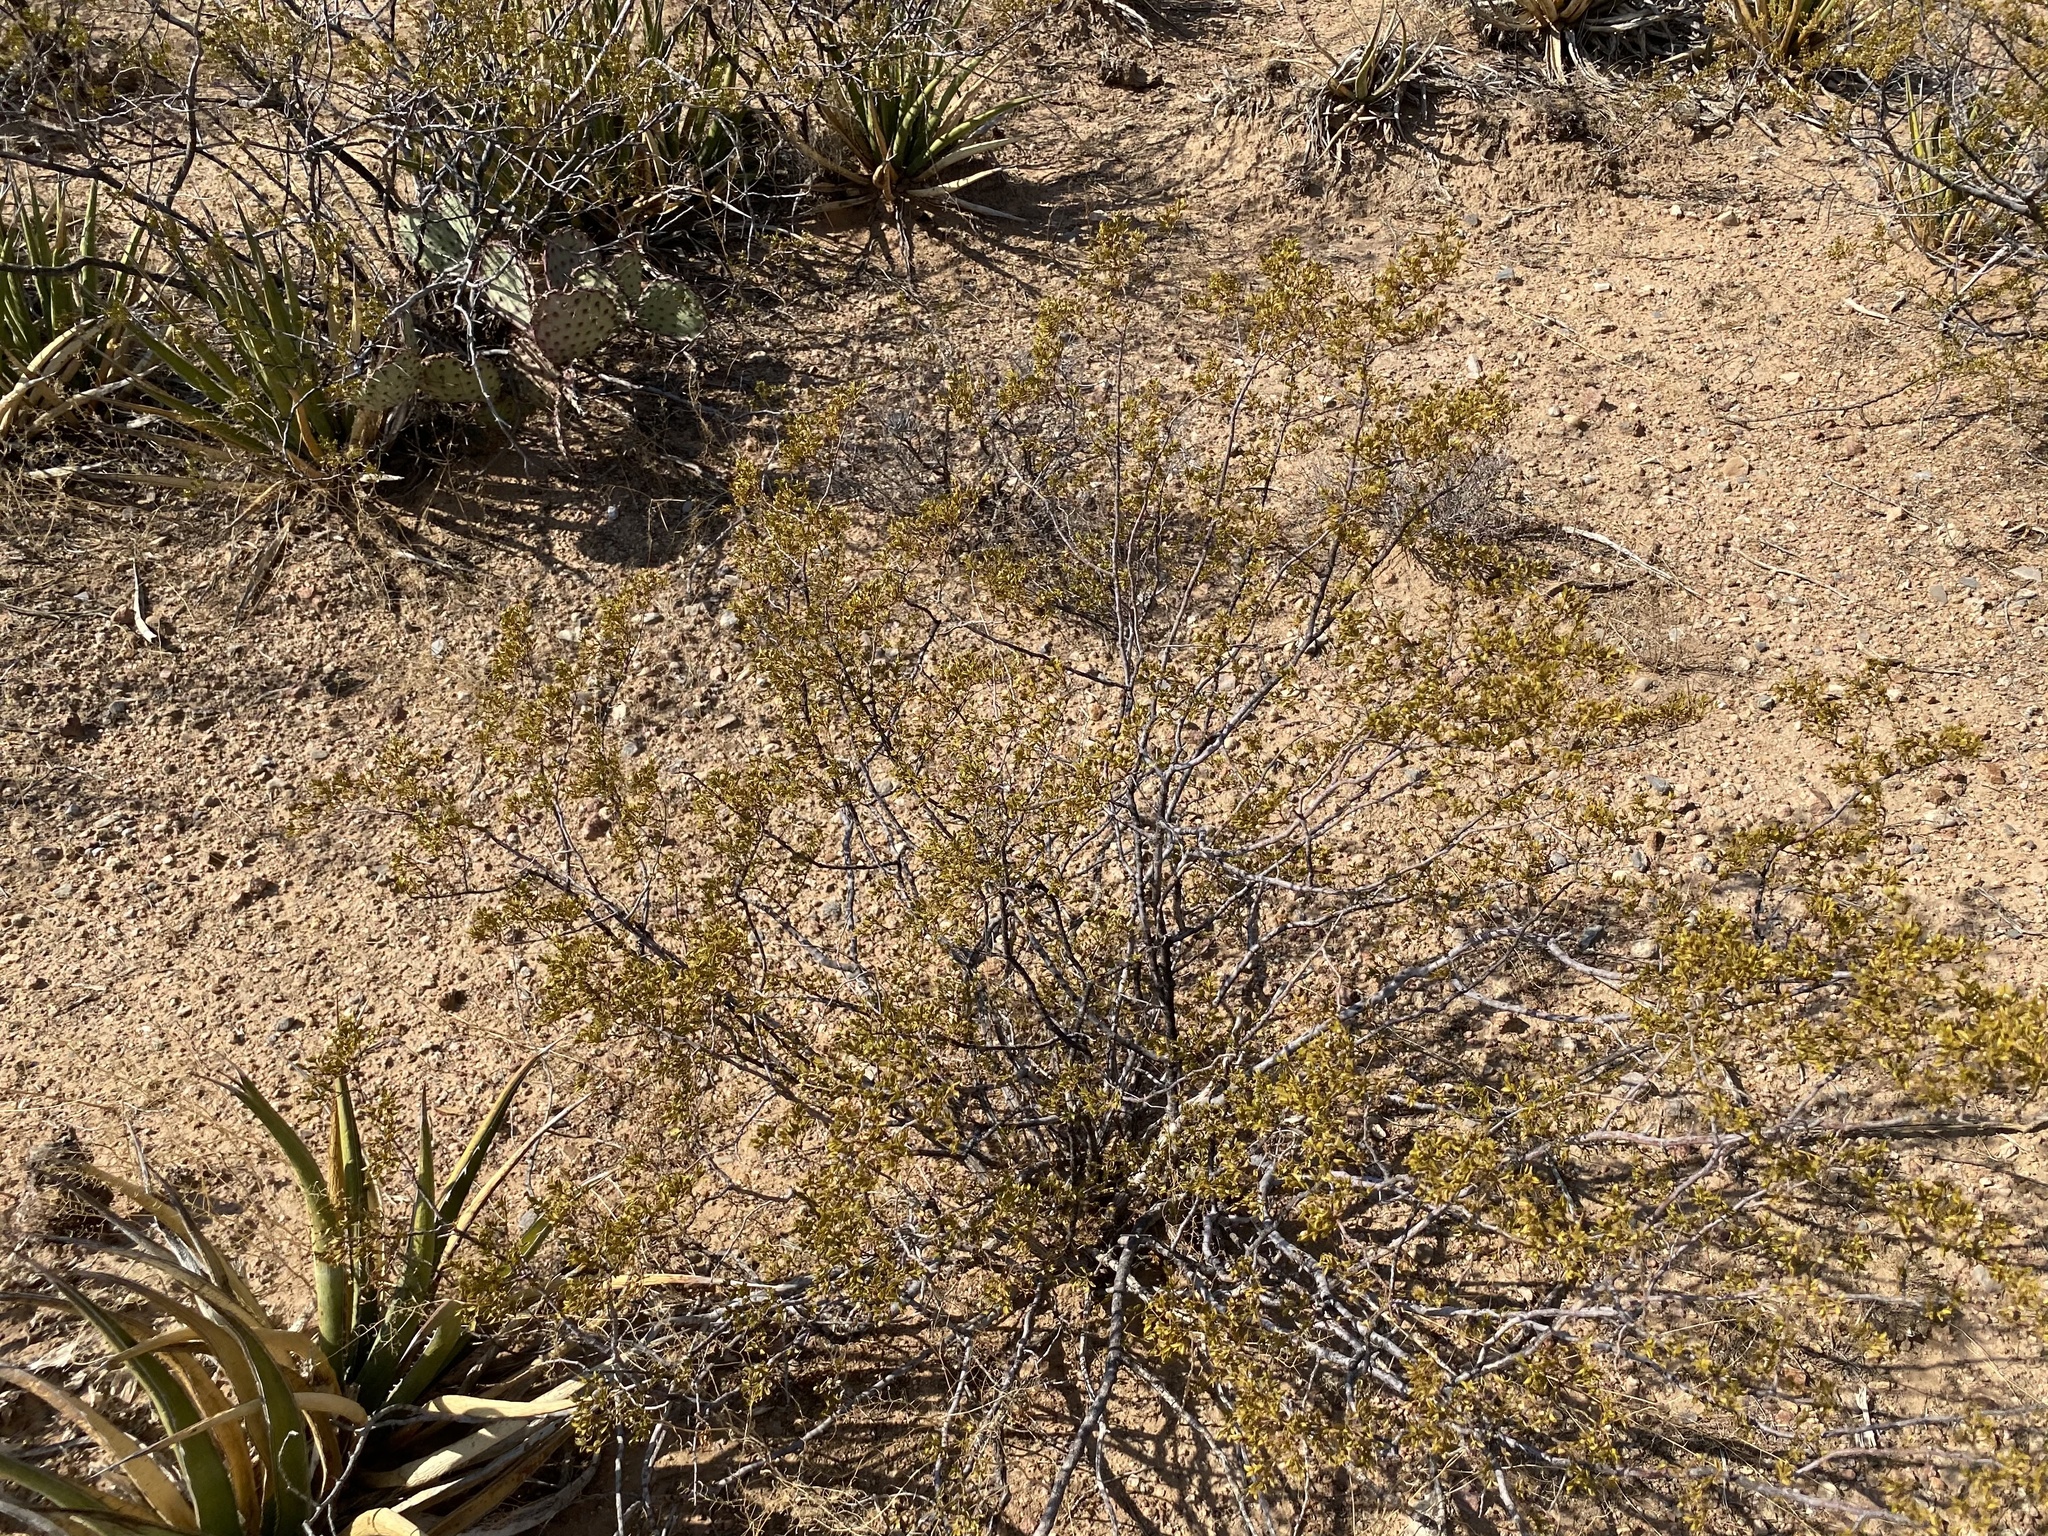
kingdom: Plantae
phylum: Tracheophyta
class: Magnoliopsida
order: Zygophyllales
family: Zygophyllaceae
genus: Larrea
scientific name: Larrea tridentata
